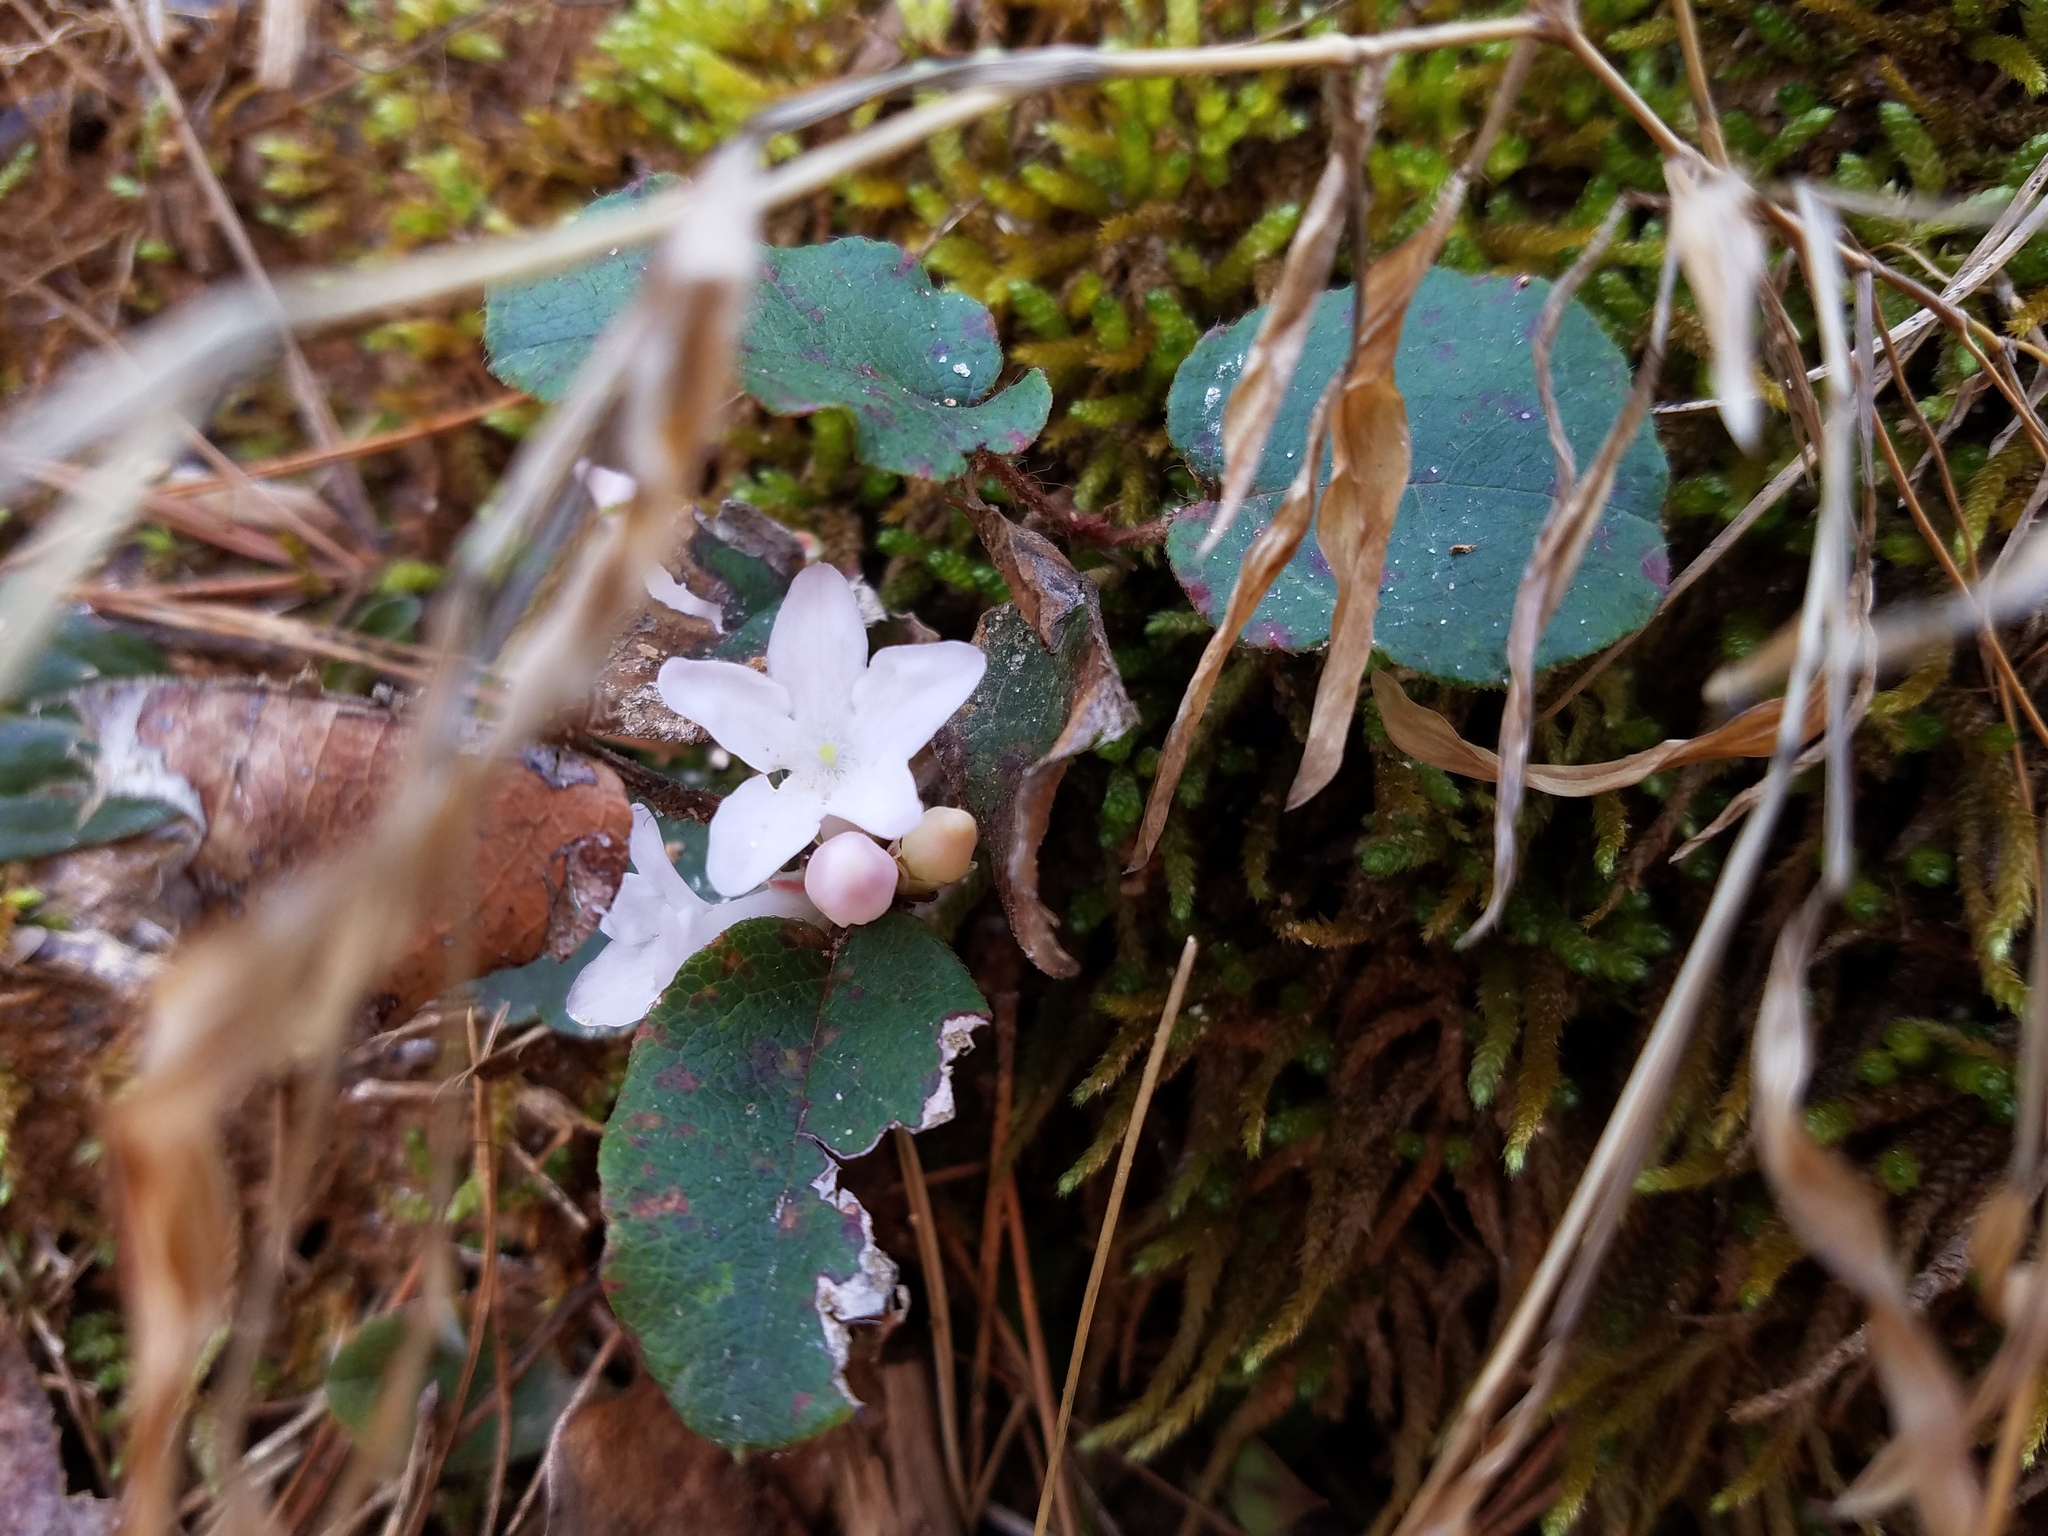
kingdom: Plantae
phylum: Tracheophyta
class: Magnoliopsida
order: Ericales
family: Ericaceae
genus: Epigaea
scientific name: Epigaea repens
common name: Gravelroot
